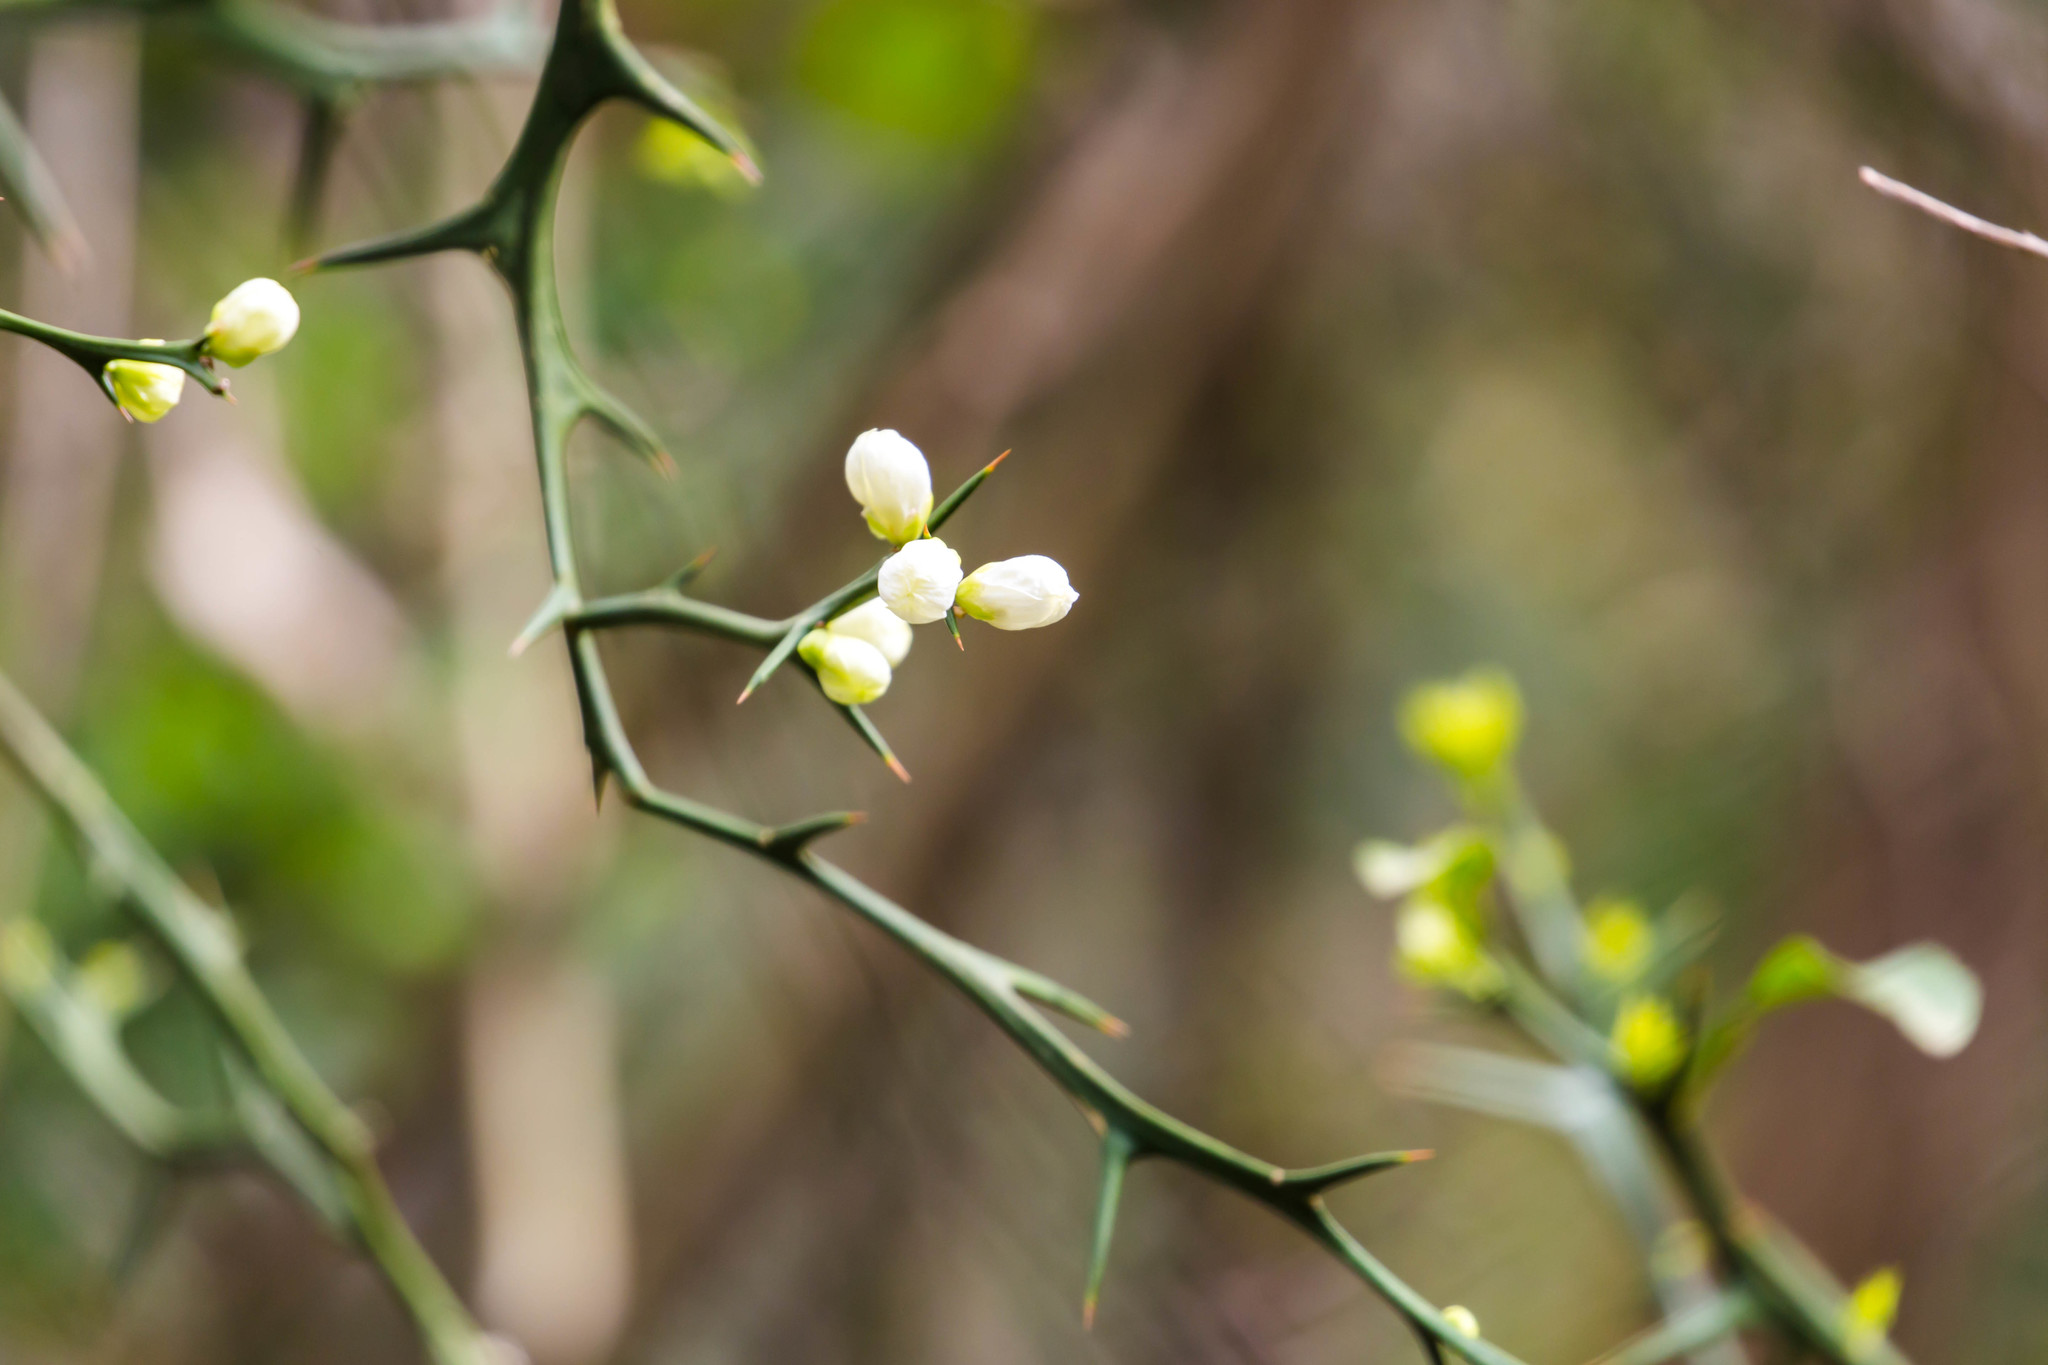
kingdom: Plantae
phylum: Tracheophyta
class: Magnoliopsida
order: Sapindales
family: Rutaceae
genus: Citrus
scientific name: Citrus trifoliata
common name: Japanese bitter-orange
